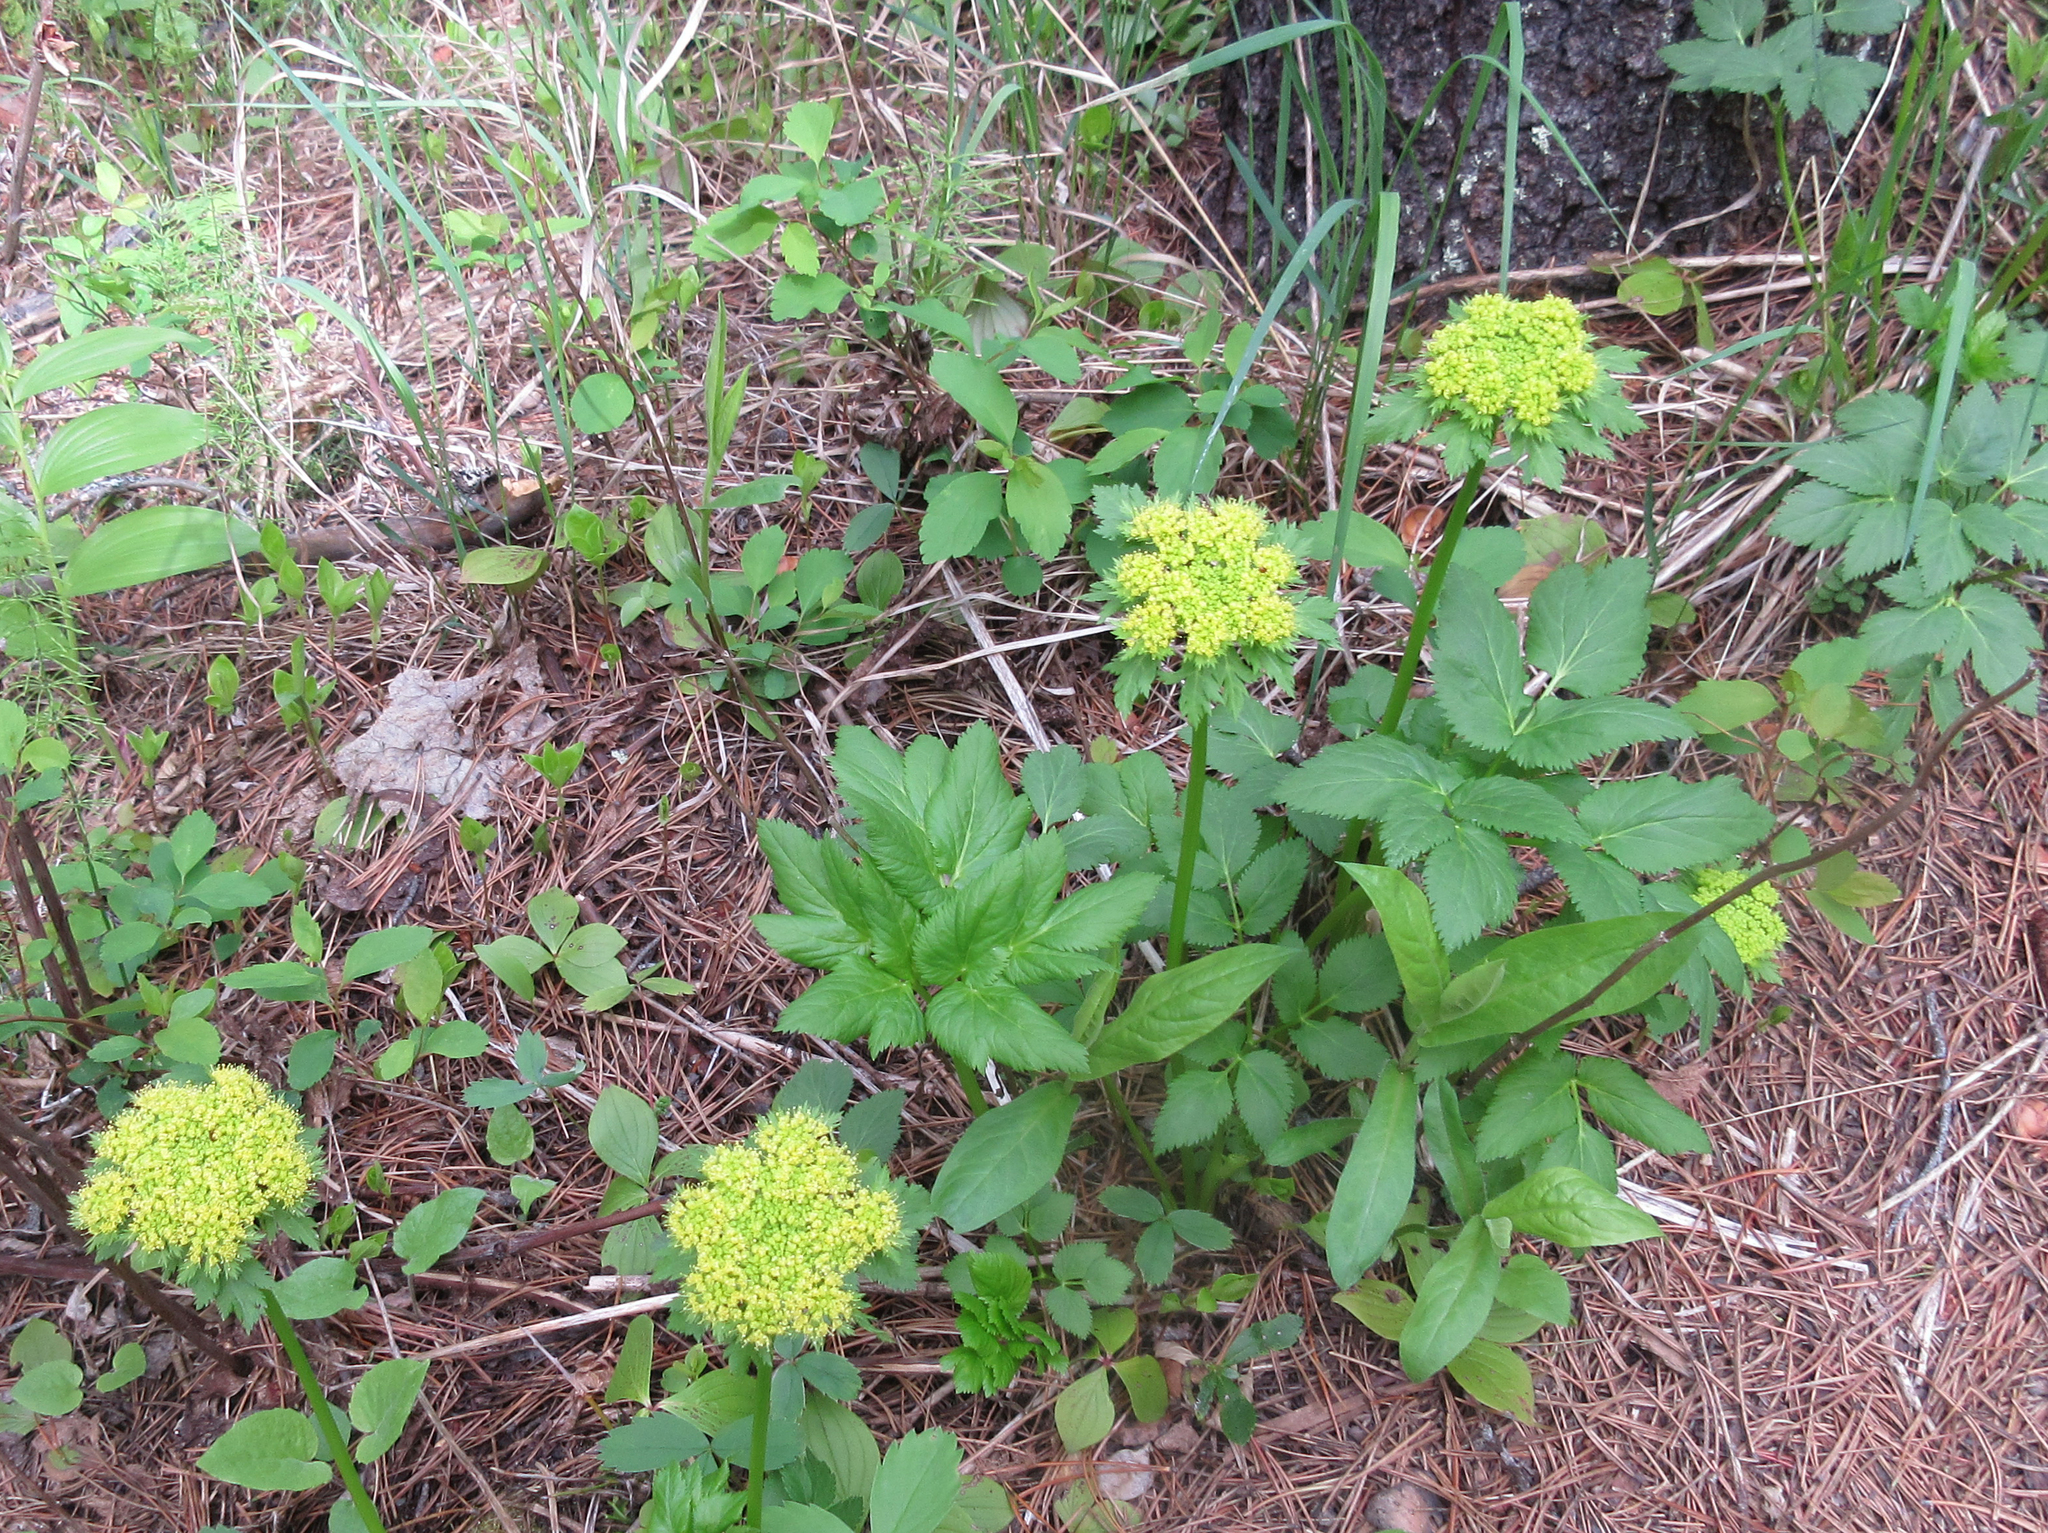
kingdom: Plantae
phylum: Tracheophyta
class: Magnoliopsida
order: Apiales
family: Apiaceae
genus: Angelica
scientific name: Angelica dawsonii
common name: Dawson's angelica
